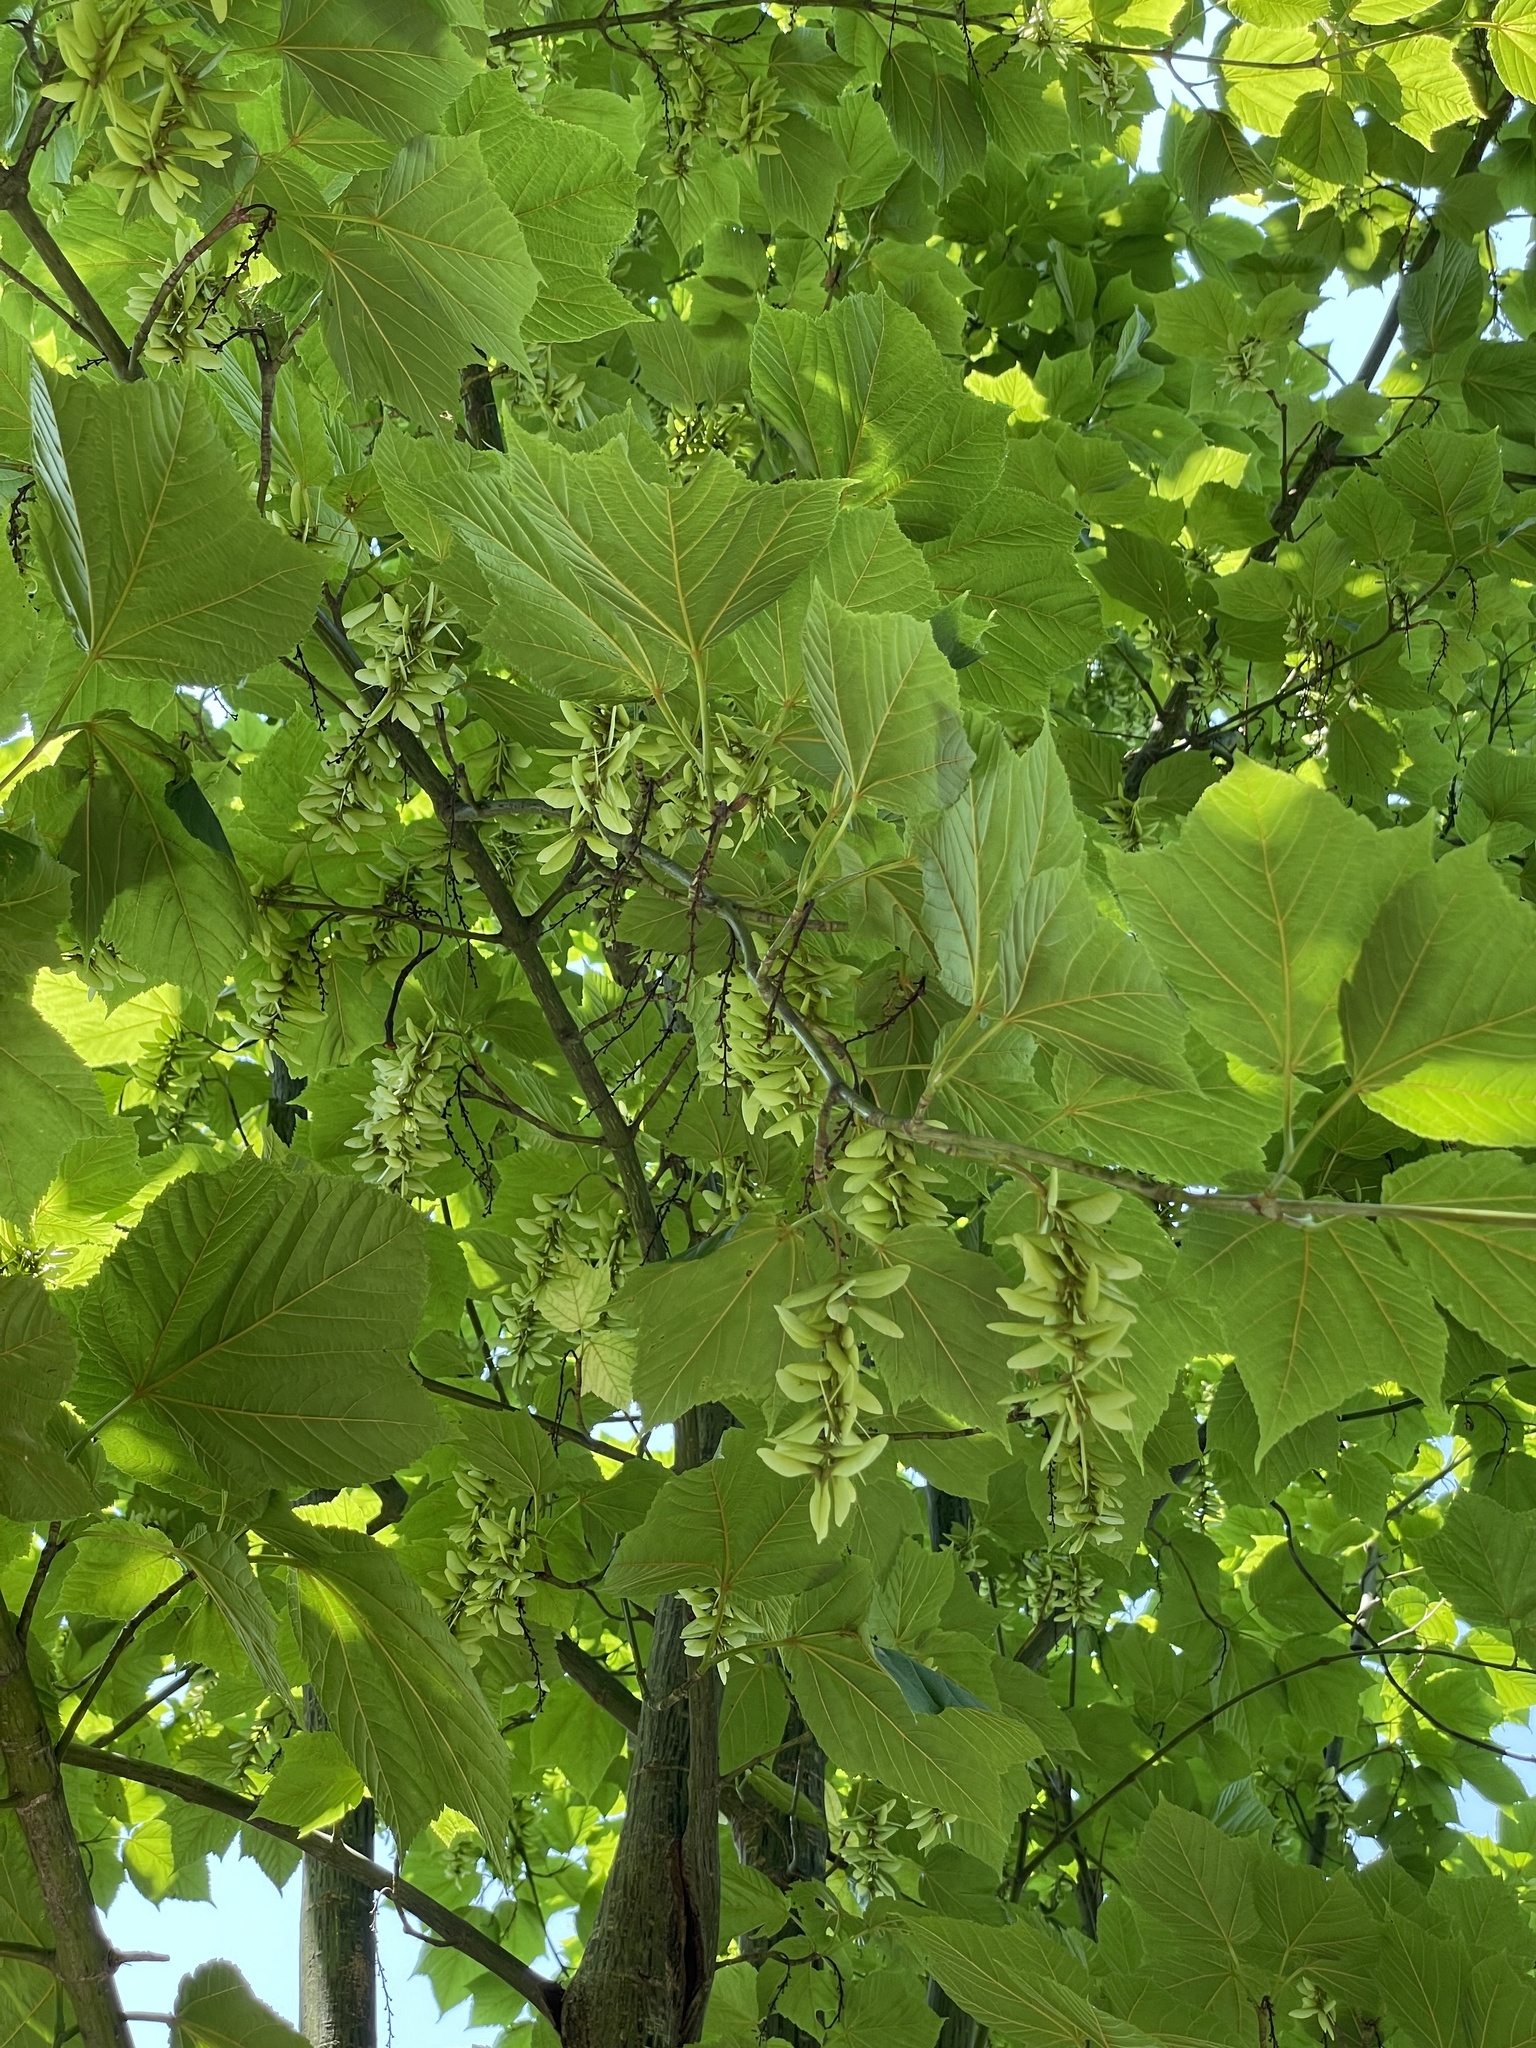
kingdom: Plantae
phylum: Tracheophyta
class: Magnoliopsida
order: Sapindales
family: Sapindaceae
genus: Acer
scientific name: Acer rufinerve
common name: Red veined maple
